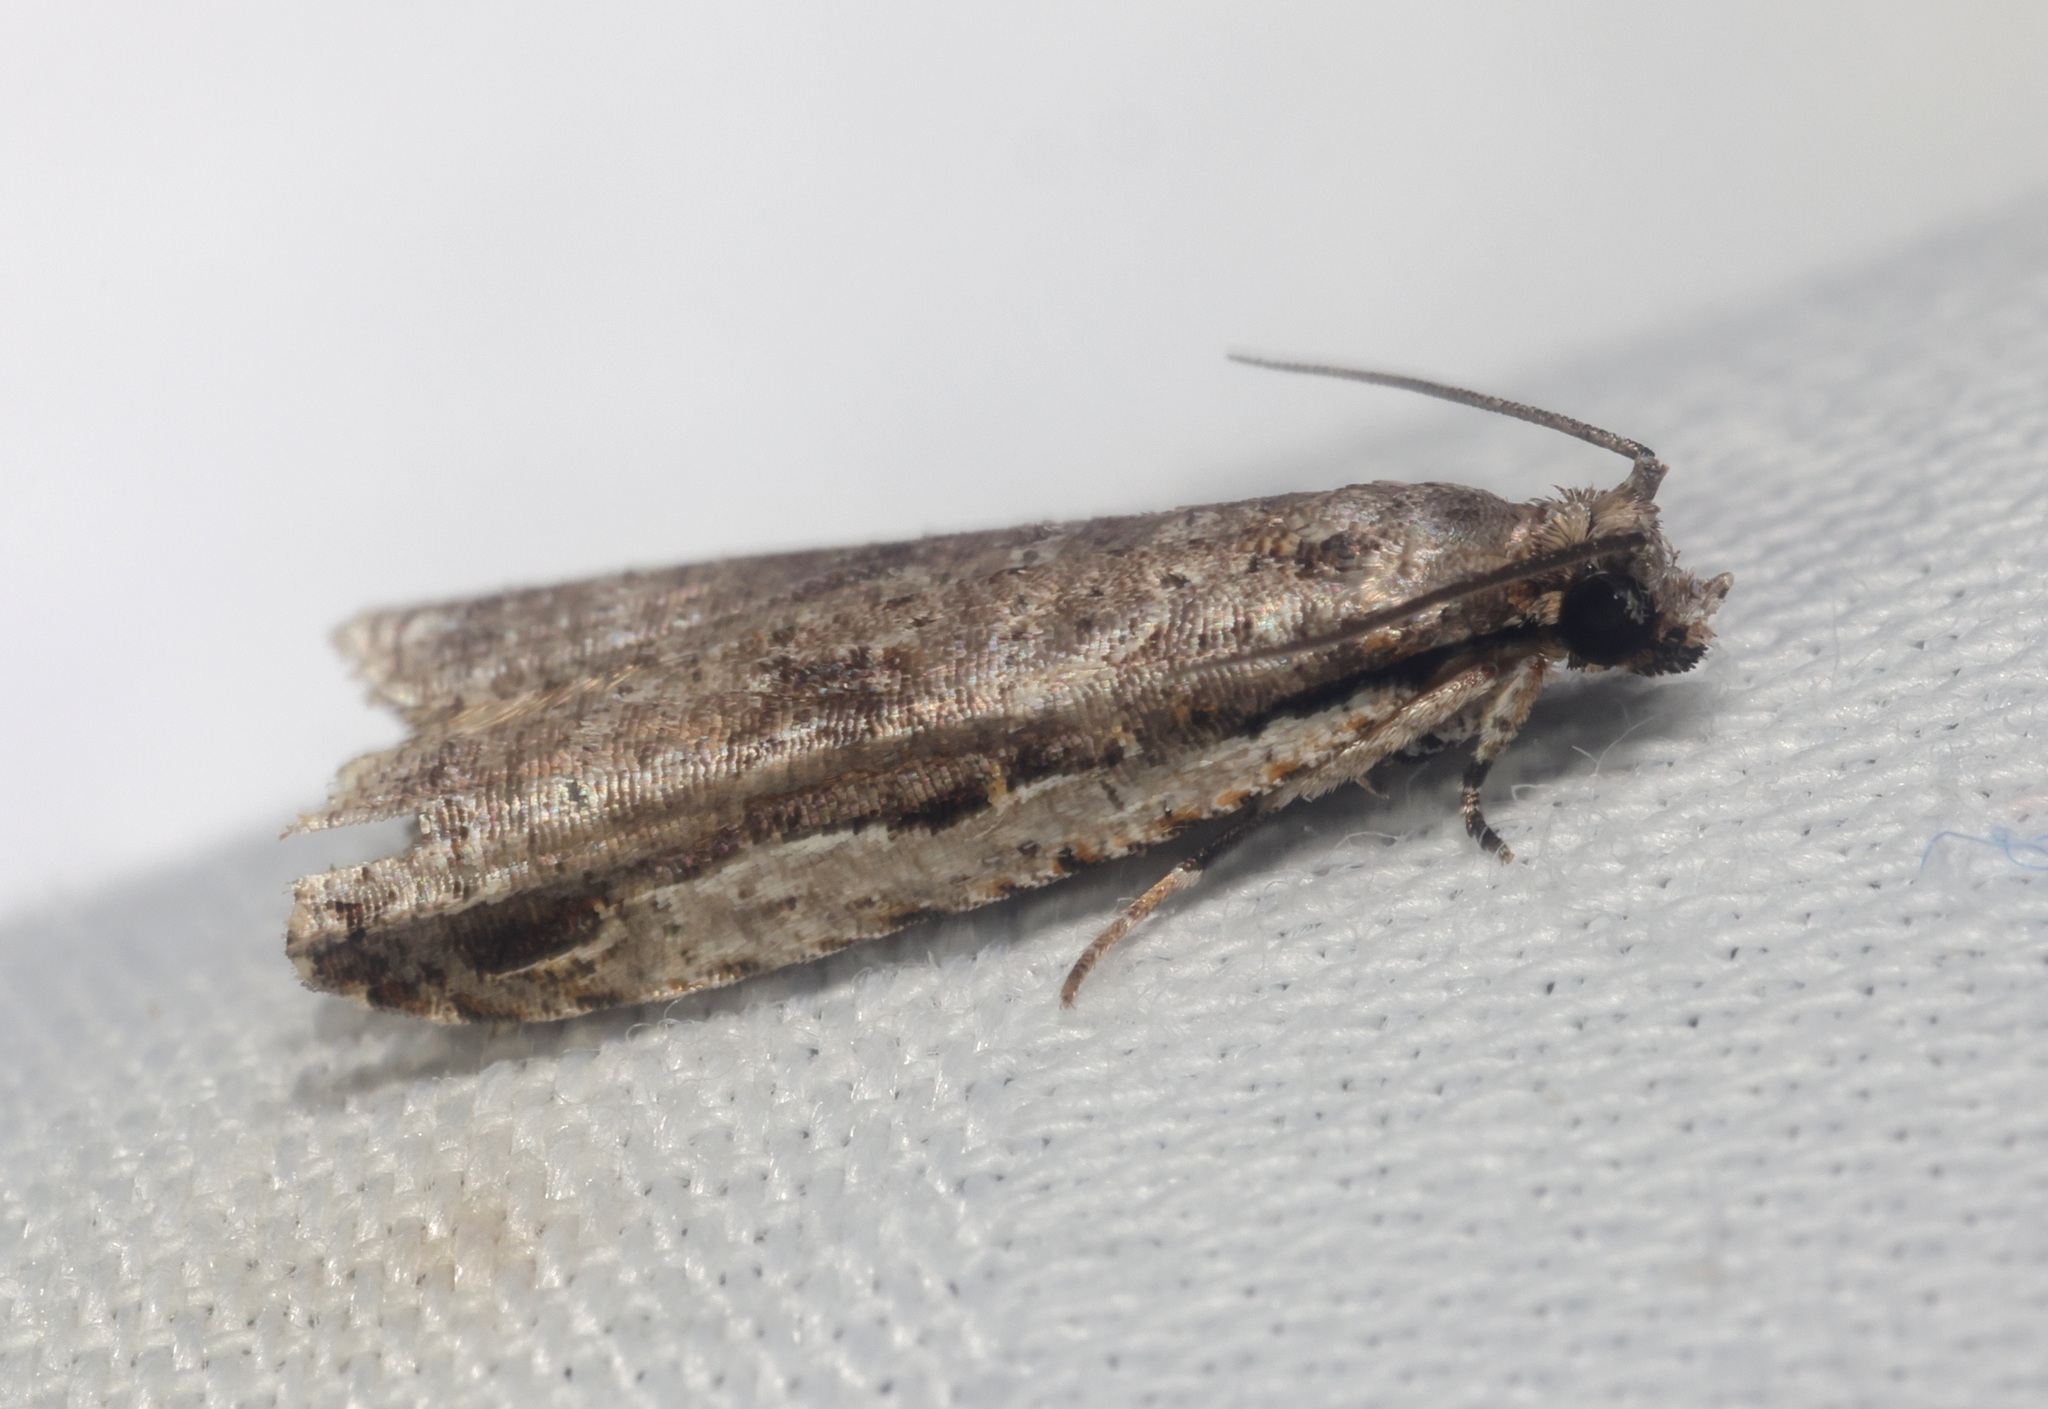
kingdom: Animalia
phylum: Arthropoda
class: Insecta
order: Lepidoptera
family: Tortricidae
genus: Phricanthes
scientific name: Phricanthes flexilineana
